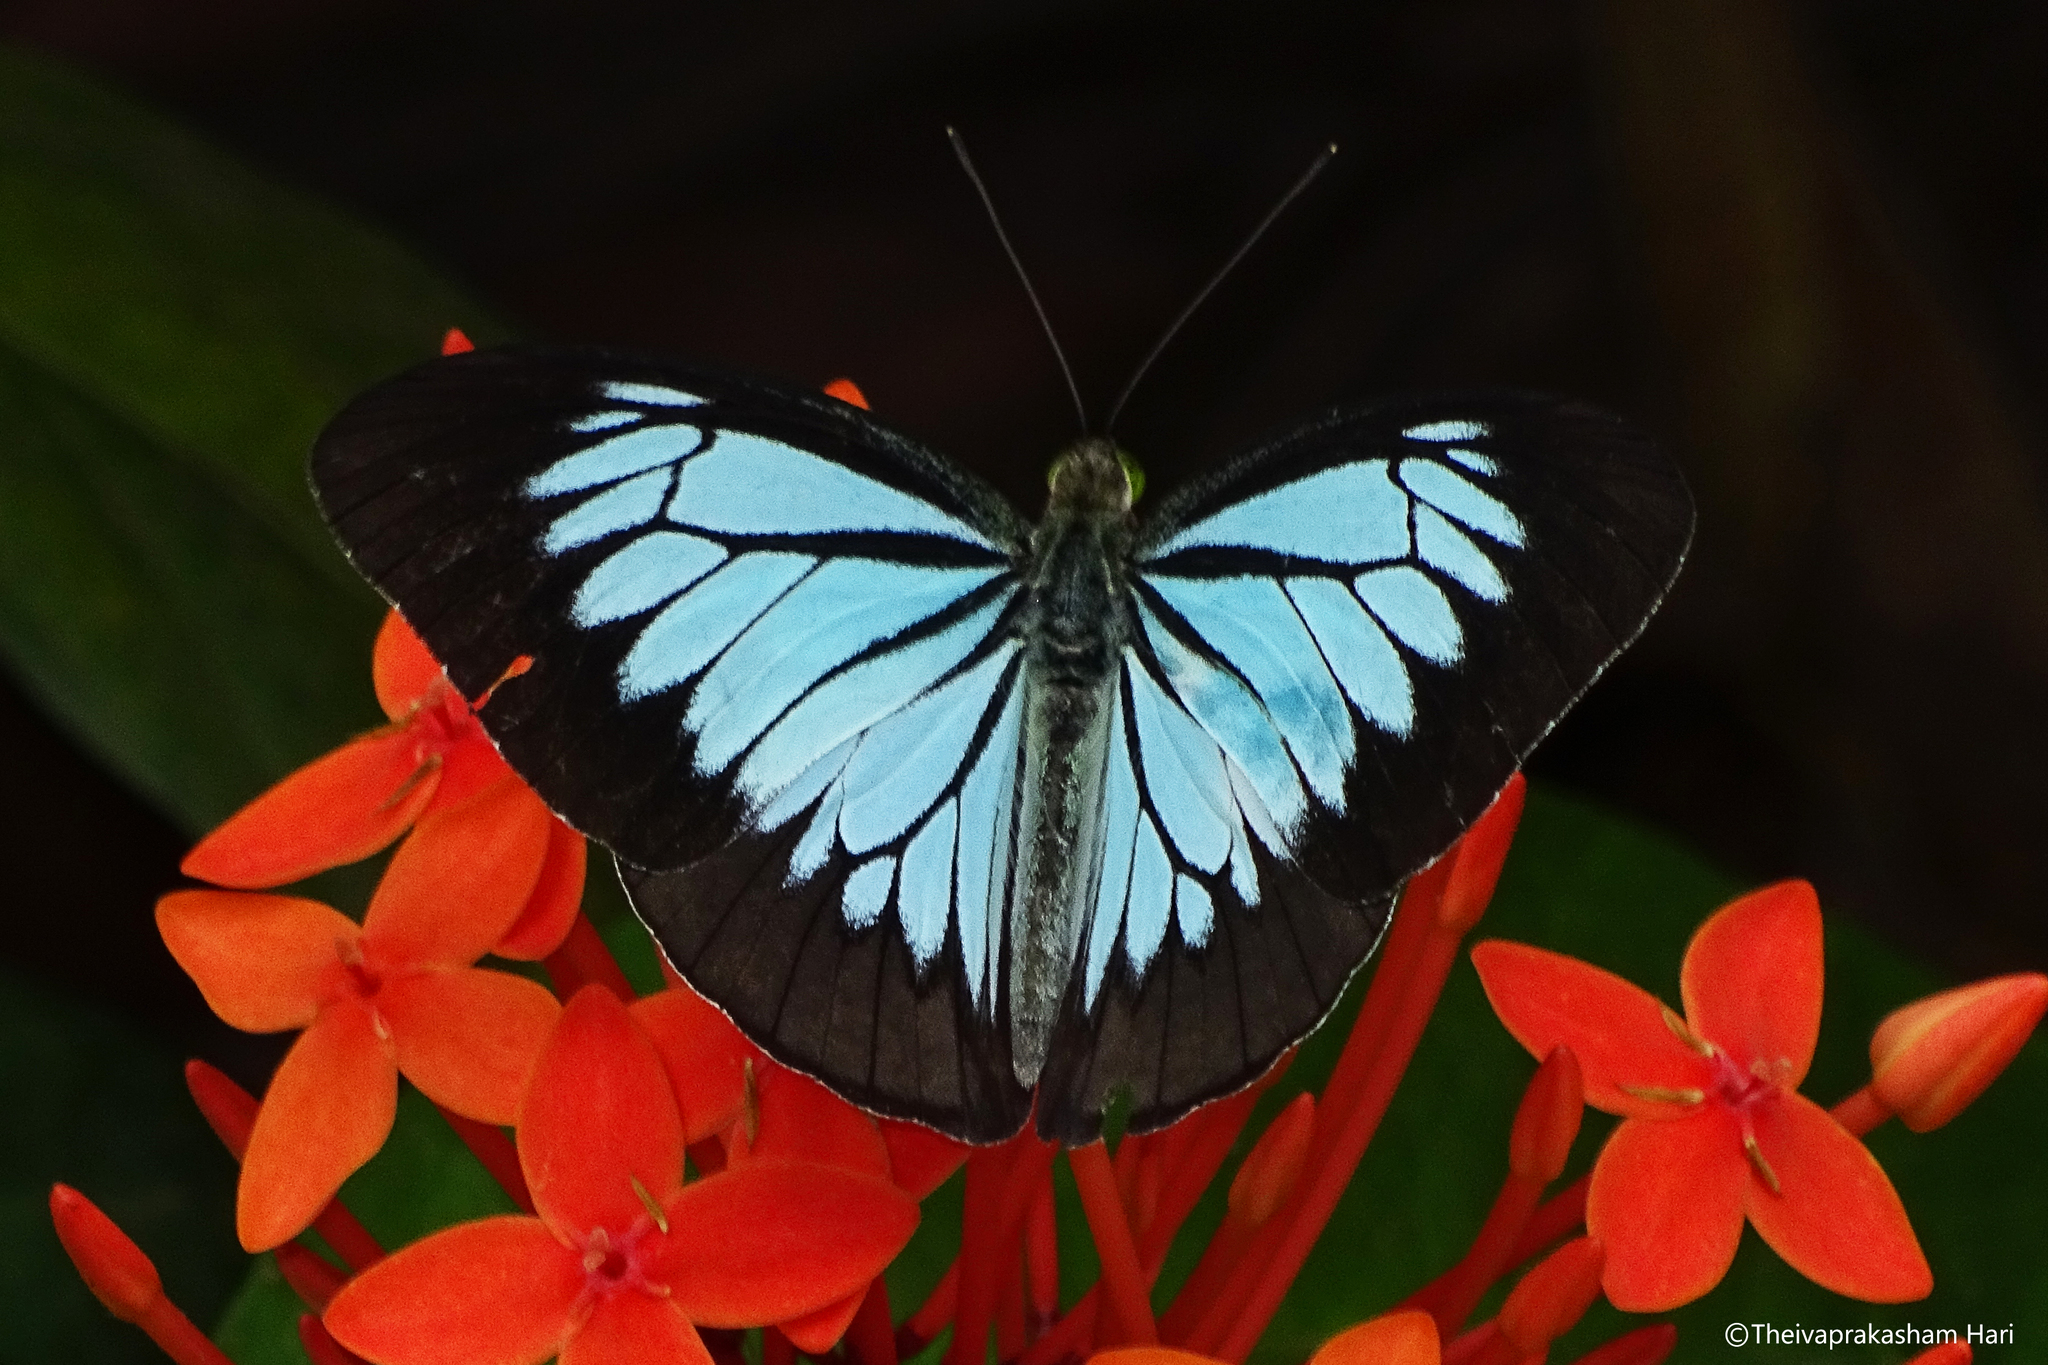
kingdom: Animalia
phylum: Arthropoda
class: Insecta
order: Lepidoptera
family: Pieridae
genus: Pareronia
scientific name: Pareronia ceylanica
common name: Dark wanderer
